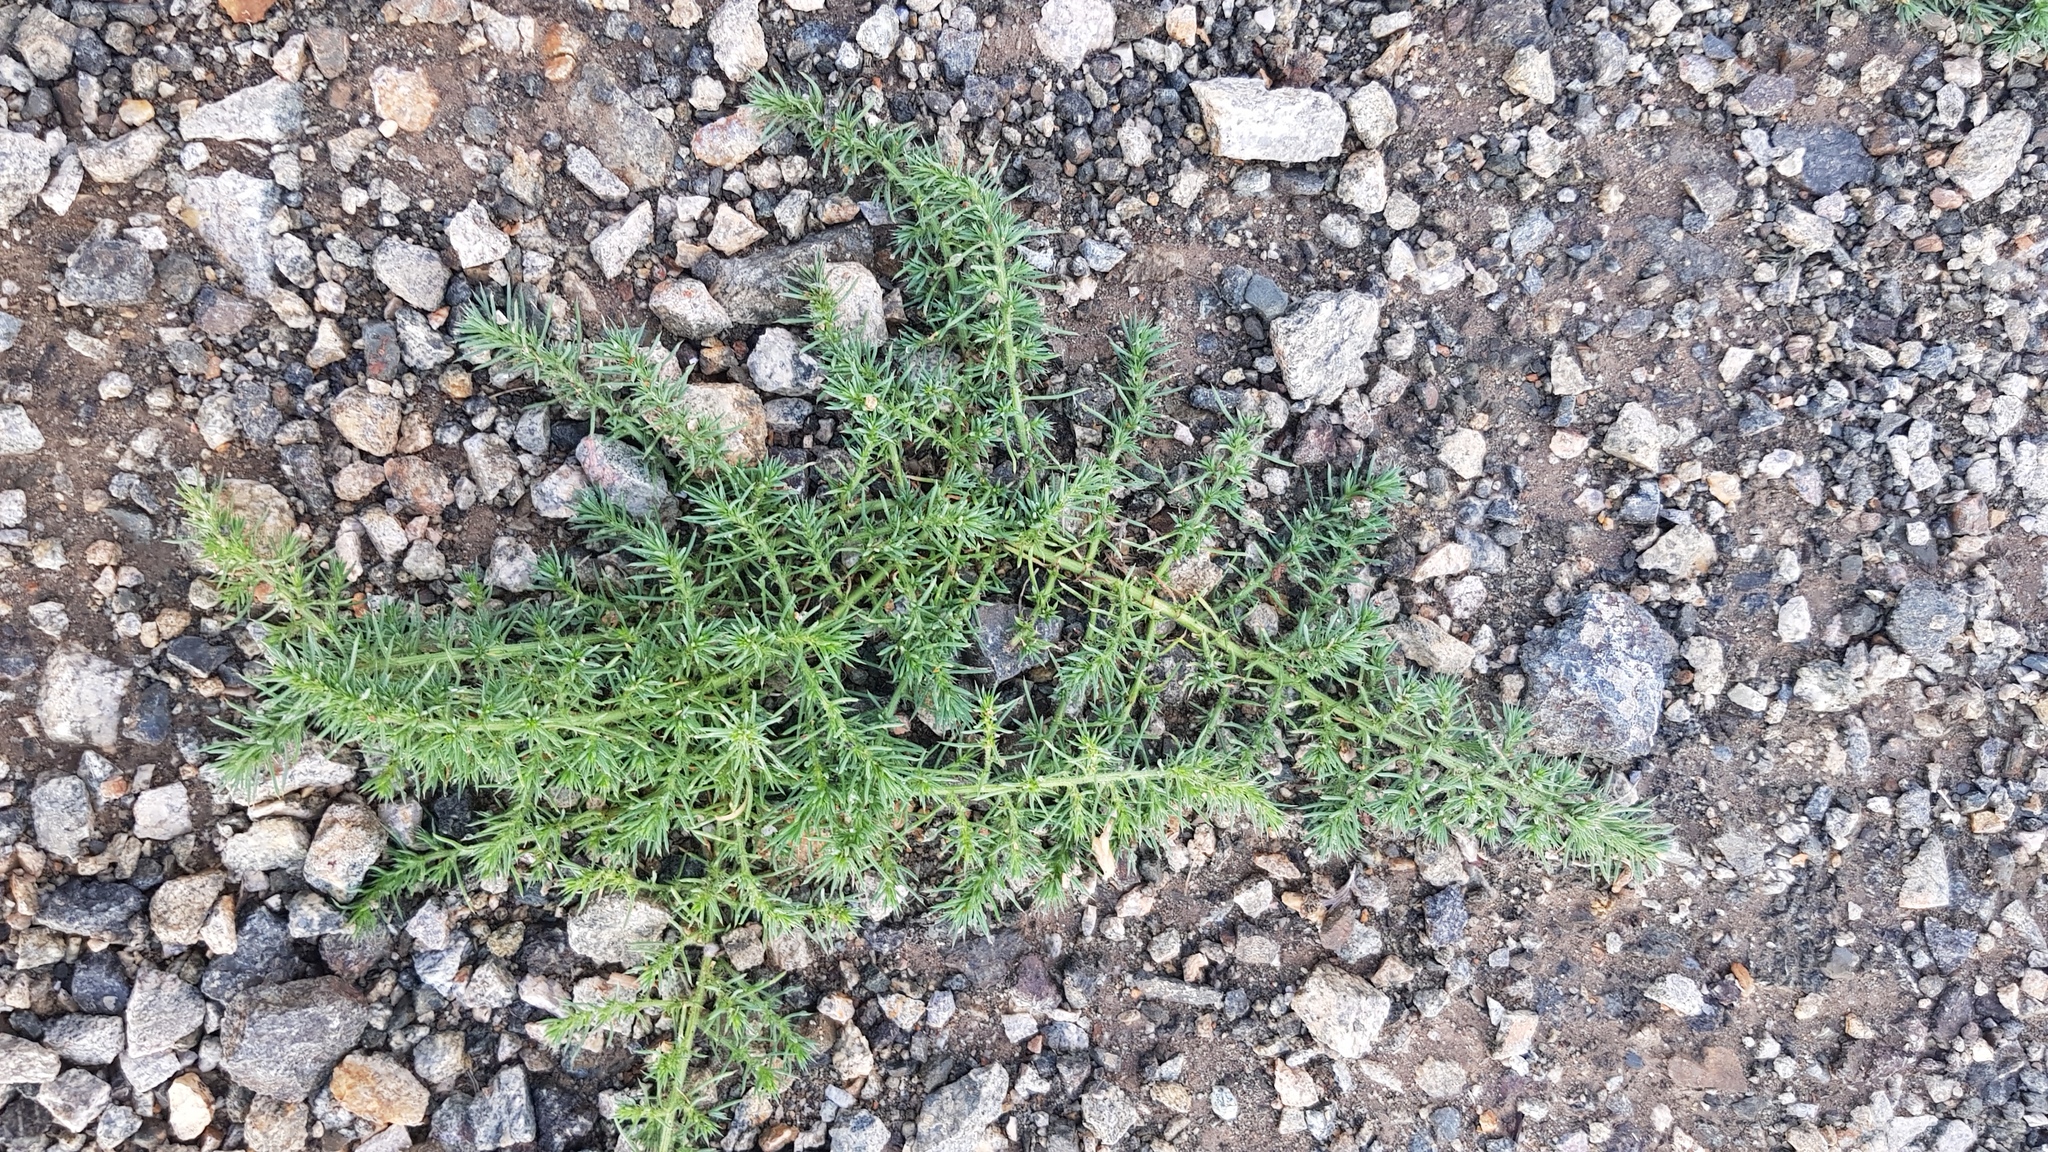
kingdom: Plantae
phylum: Tracheophyta
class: Magnoliopsida
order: Caryophyllales
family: Amaranthaceae
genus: Salsola
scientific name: Salsola tragus
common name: Prickly russian thistle
